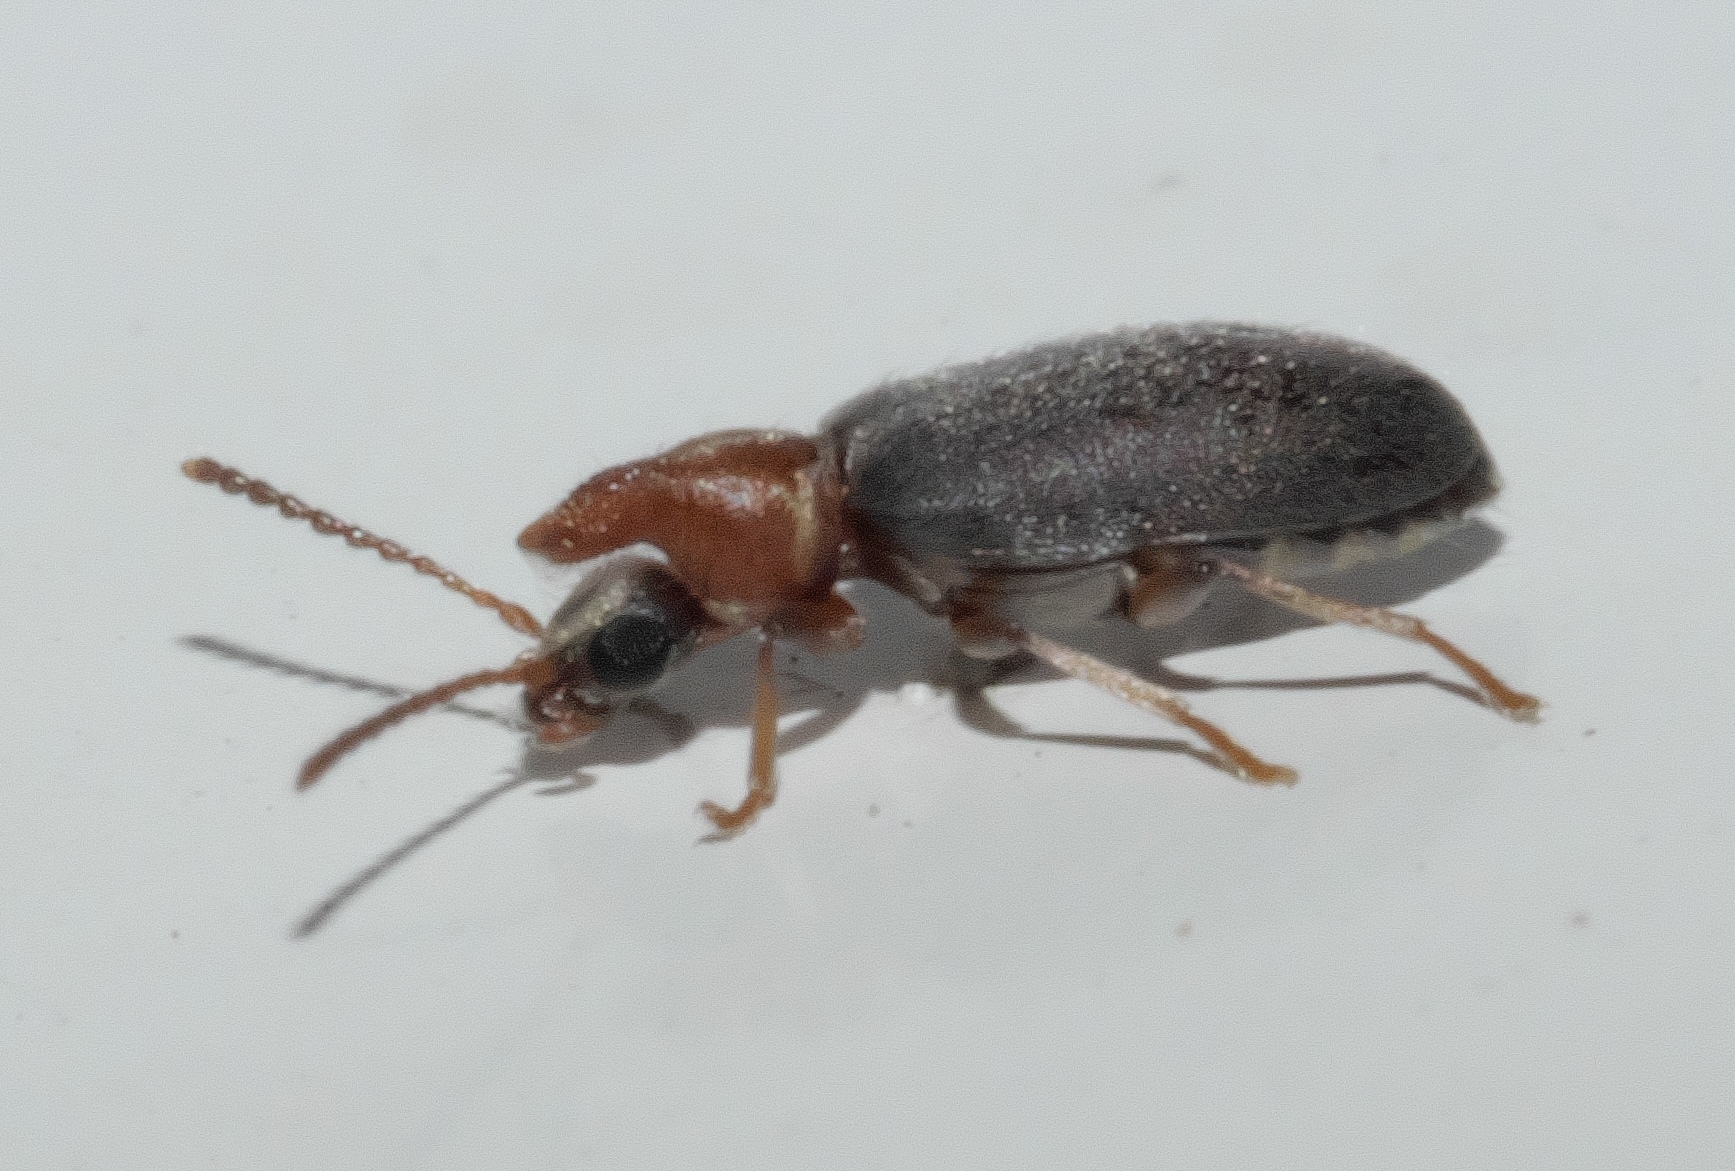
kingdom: Animalia
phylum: Arthropoda
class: Insecta
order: Coleoptera
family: Anthicidae
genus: Notoxus
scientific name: Notoxus murinipennis
